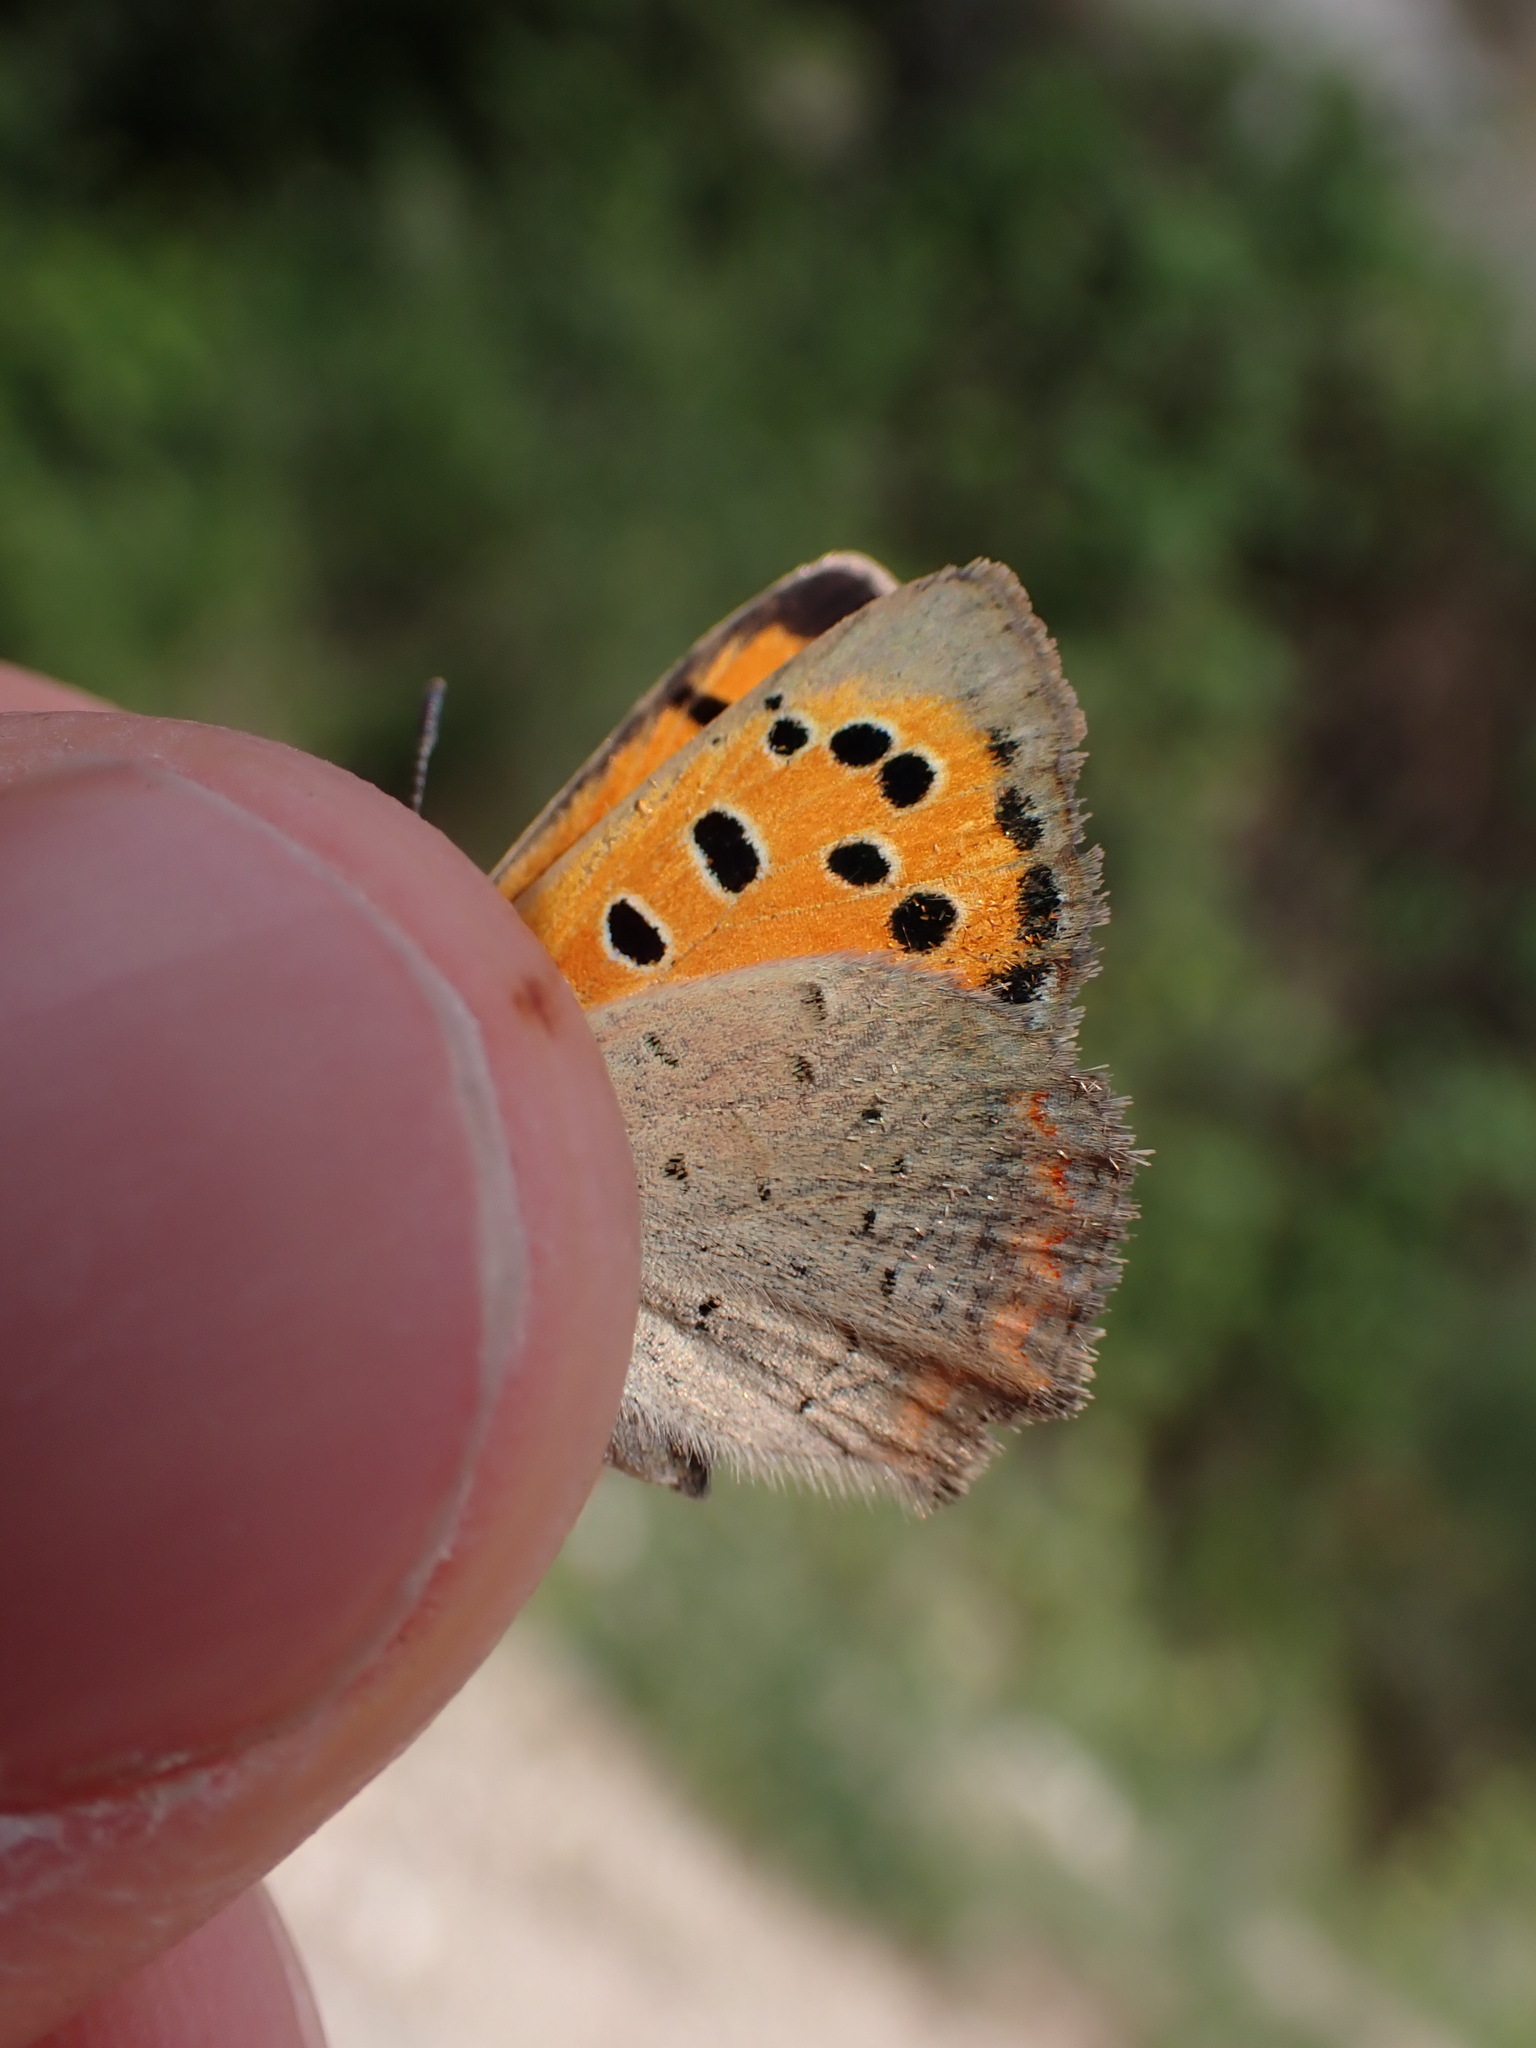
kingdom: Animalia
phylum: Arthropoda
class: Insecta
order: Lepidoptera
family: Lycaenidae
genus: Lycaena
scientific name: Lycaena phlaeas
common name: Small copper
